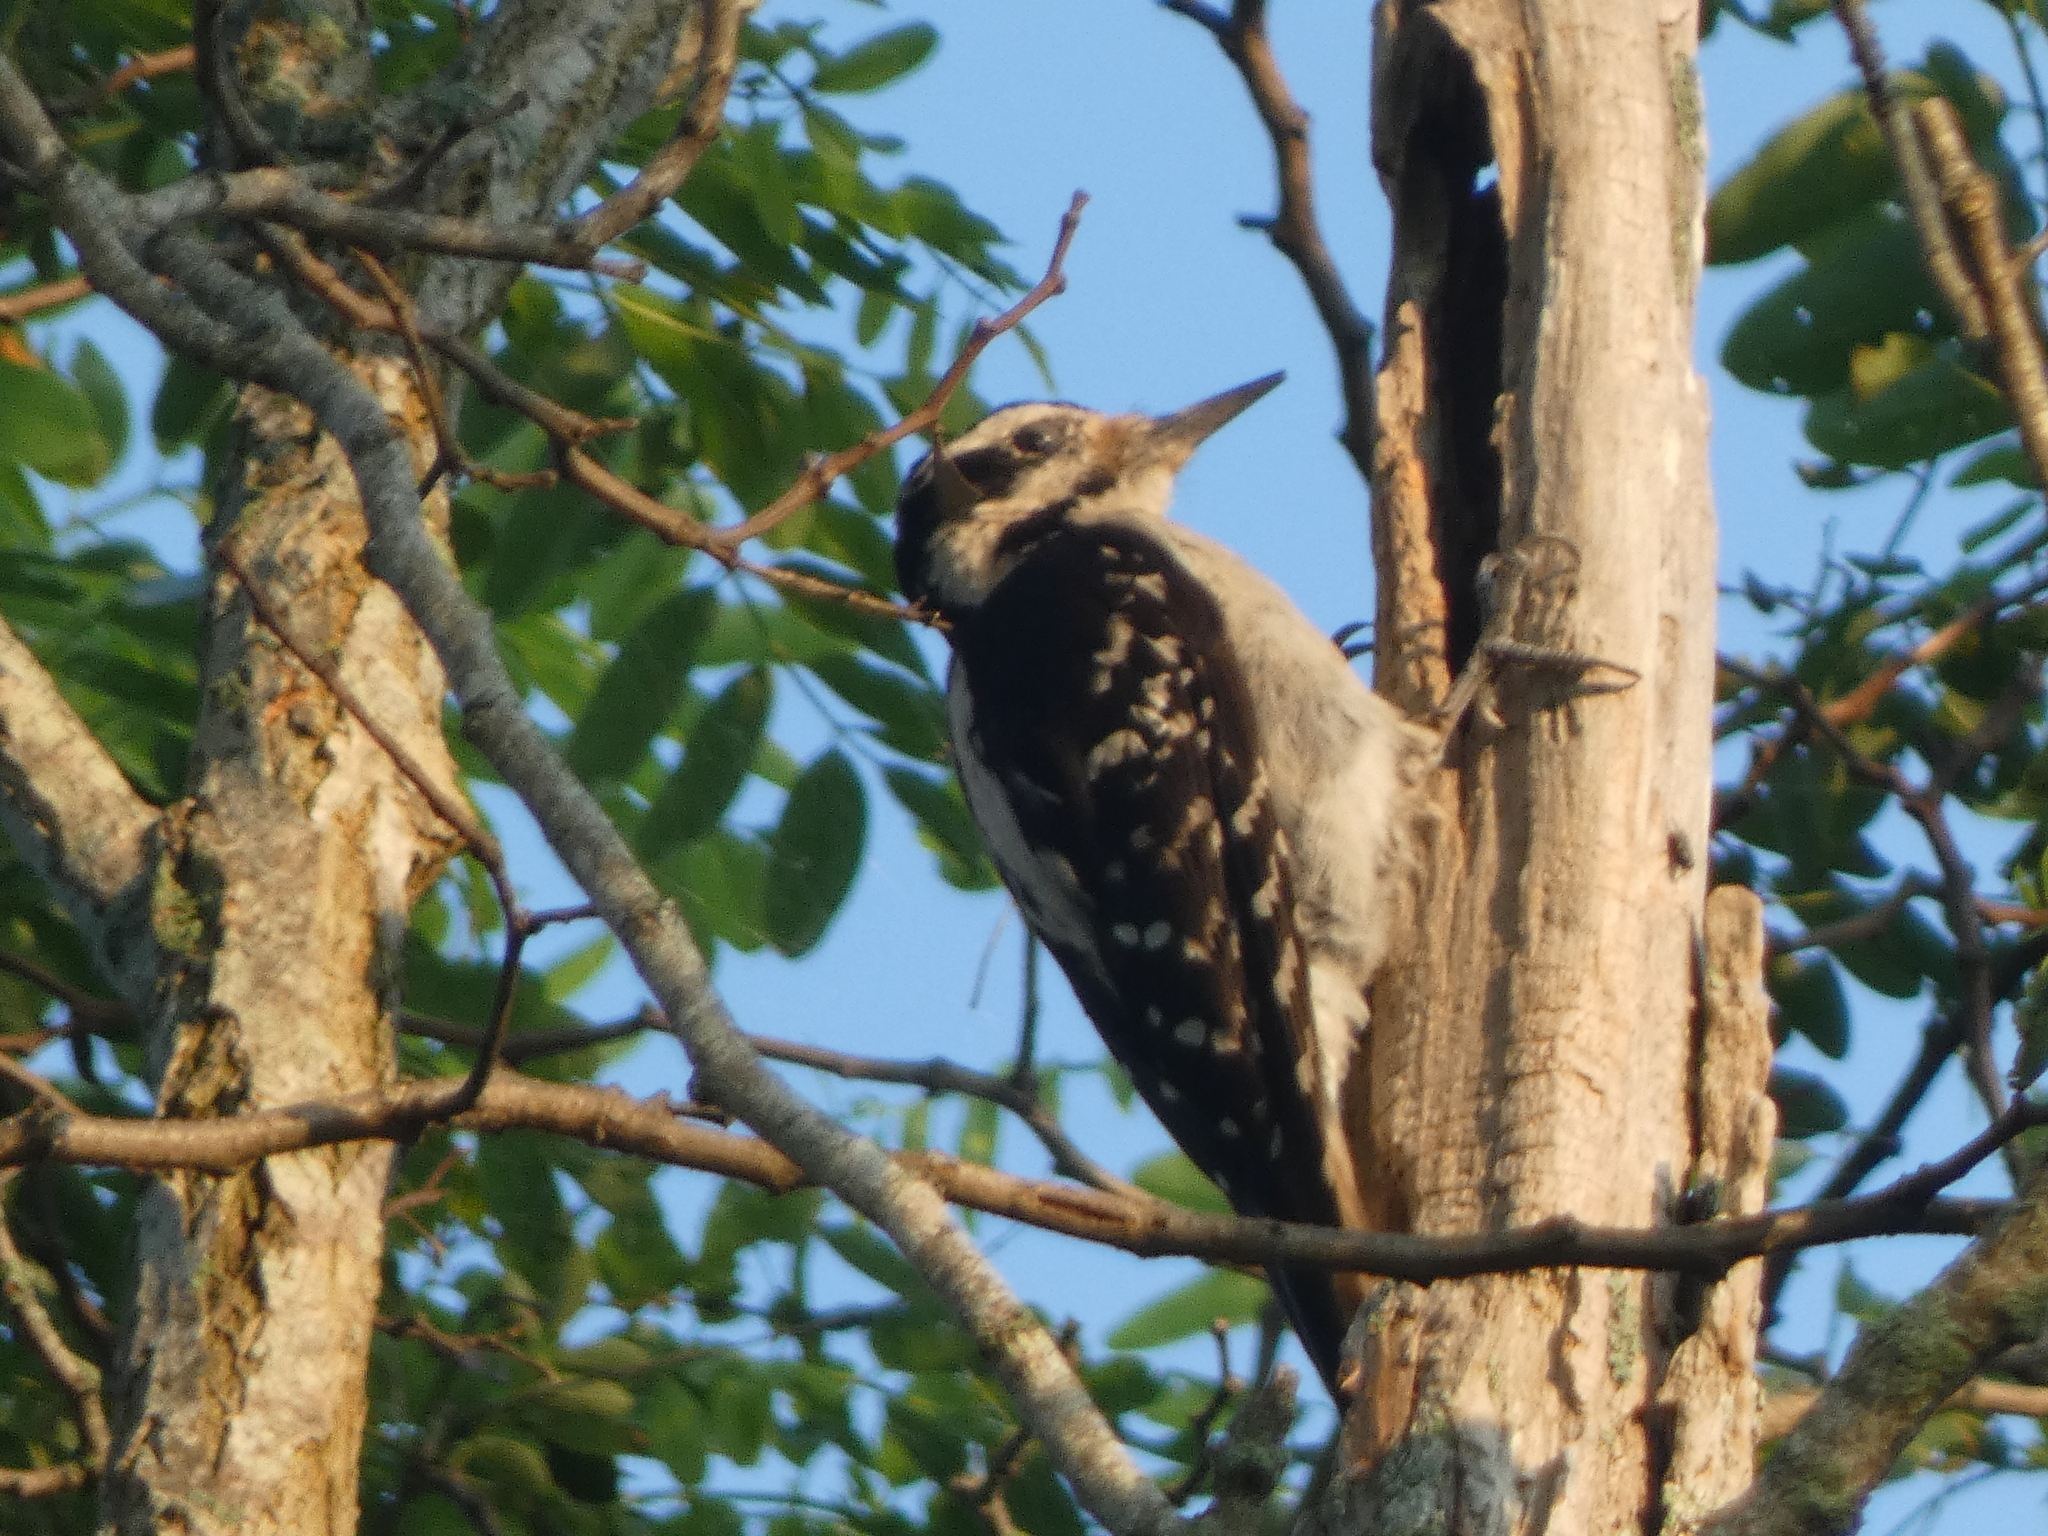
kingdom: Animalia
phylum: Chordata
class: Aves
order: Piciformes
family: Picidae
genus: Leuconotopicus
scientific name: Leuconotopicus villosus
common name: Hairy woodpecker
